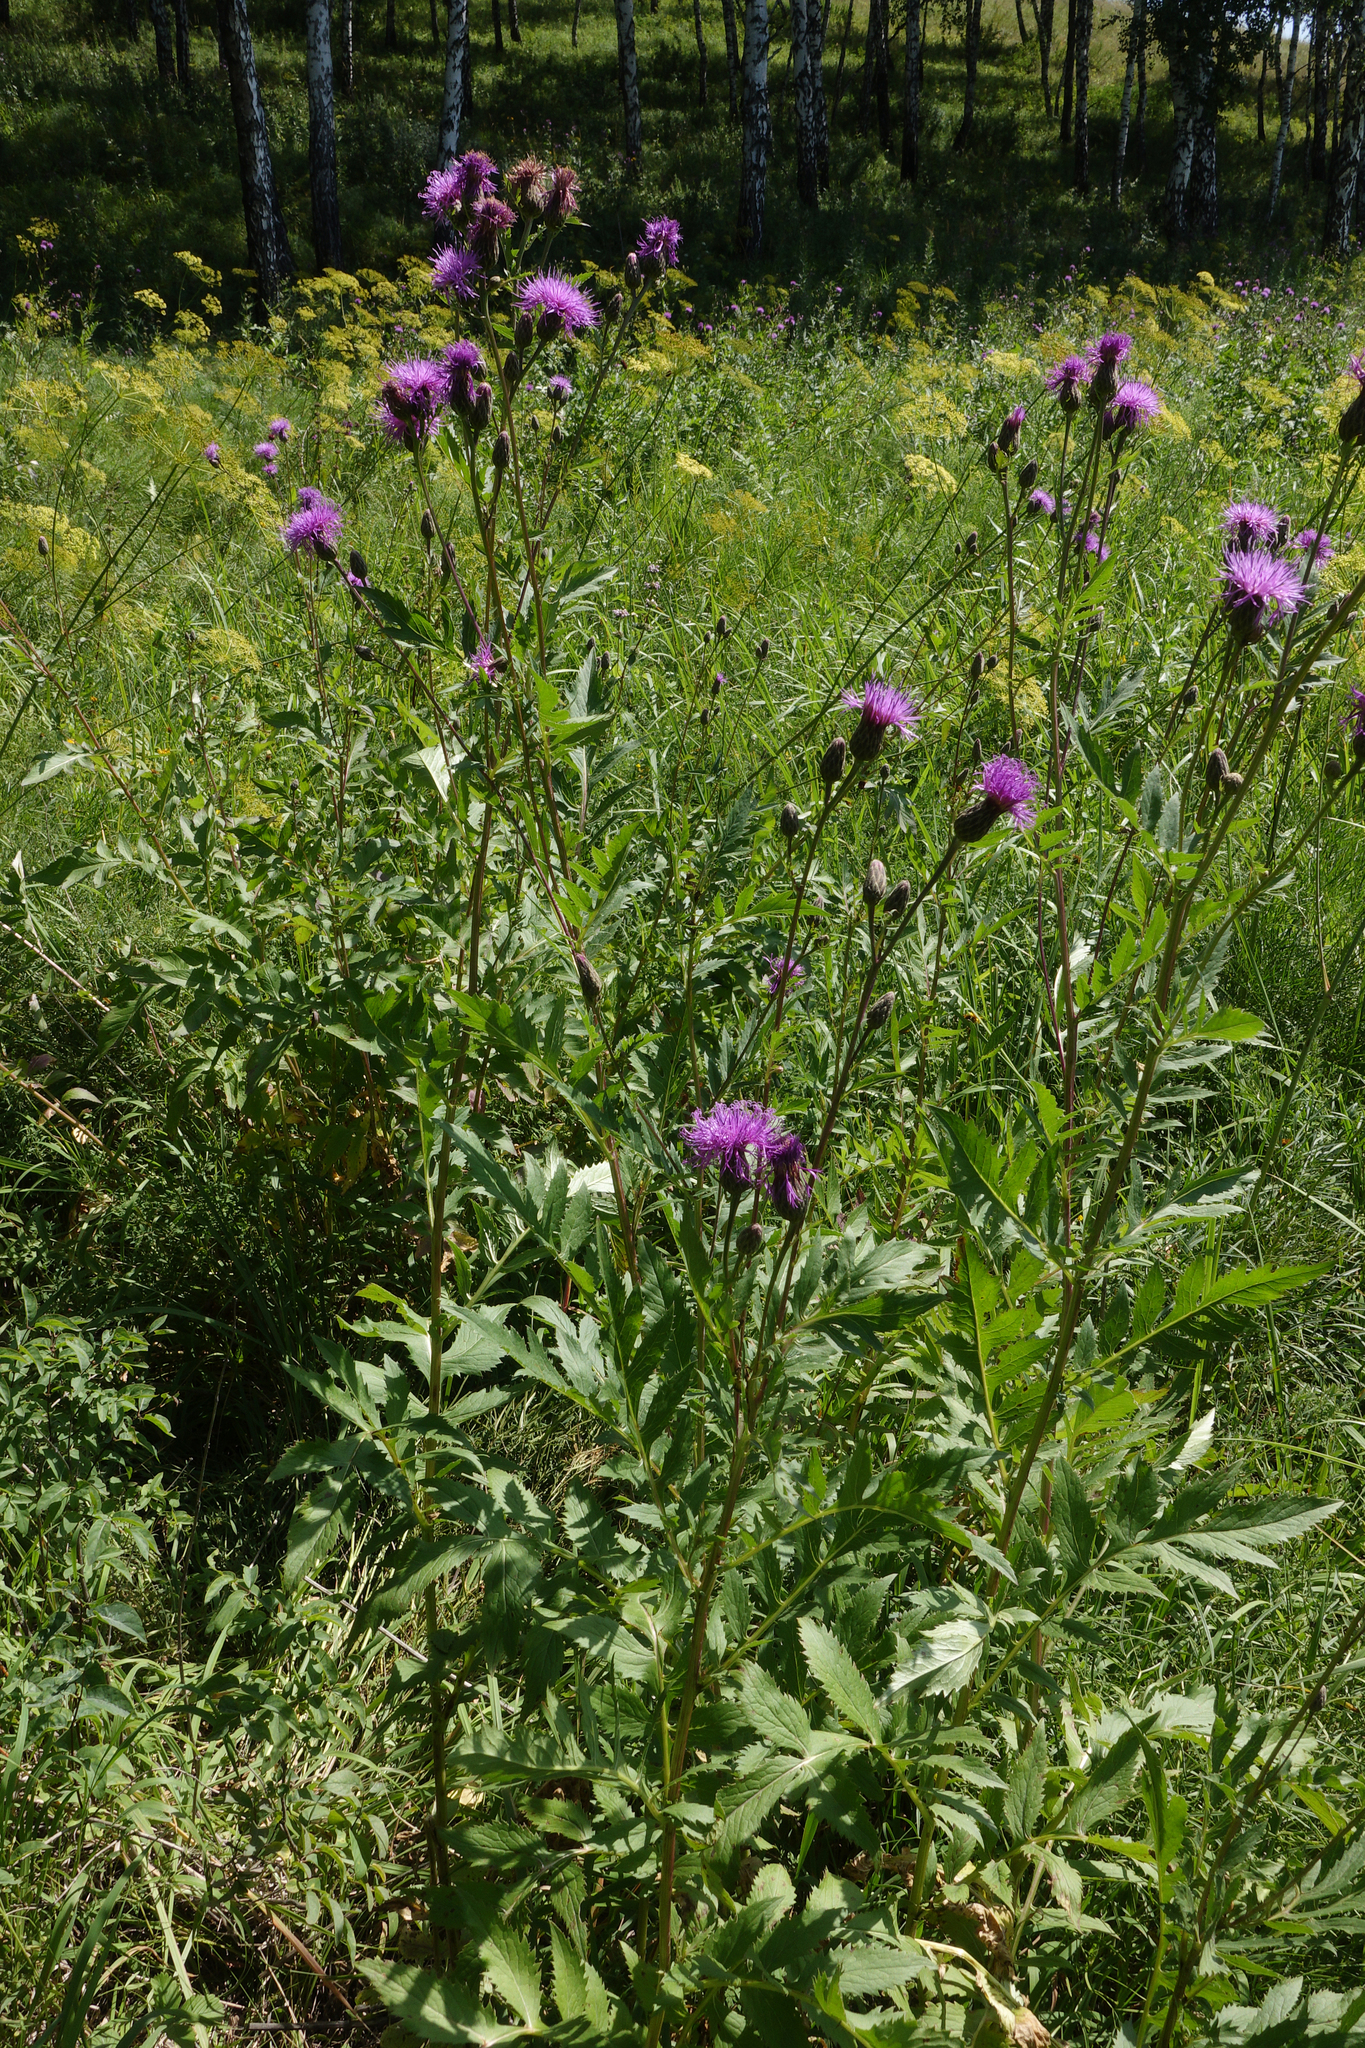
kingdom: Plantae
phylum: Tracheophyta
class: Magnoliopsida
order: Asterales
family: Asteraceae
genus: Serratula
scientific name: Serratula coronata
